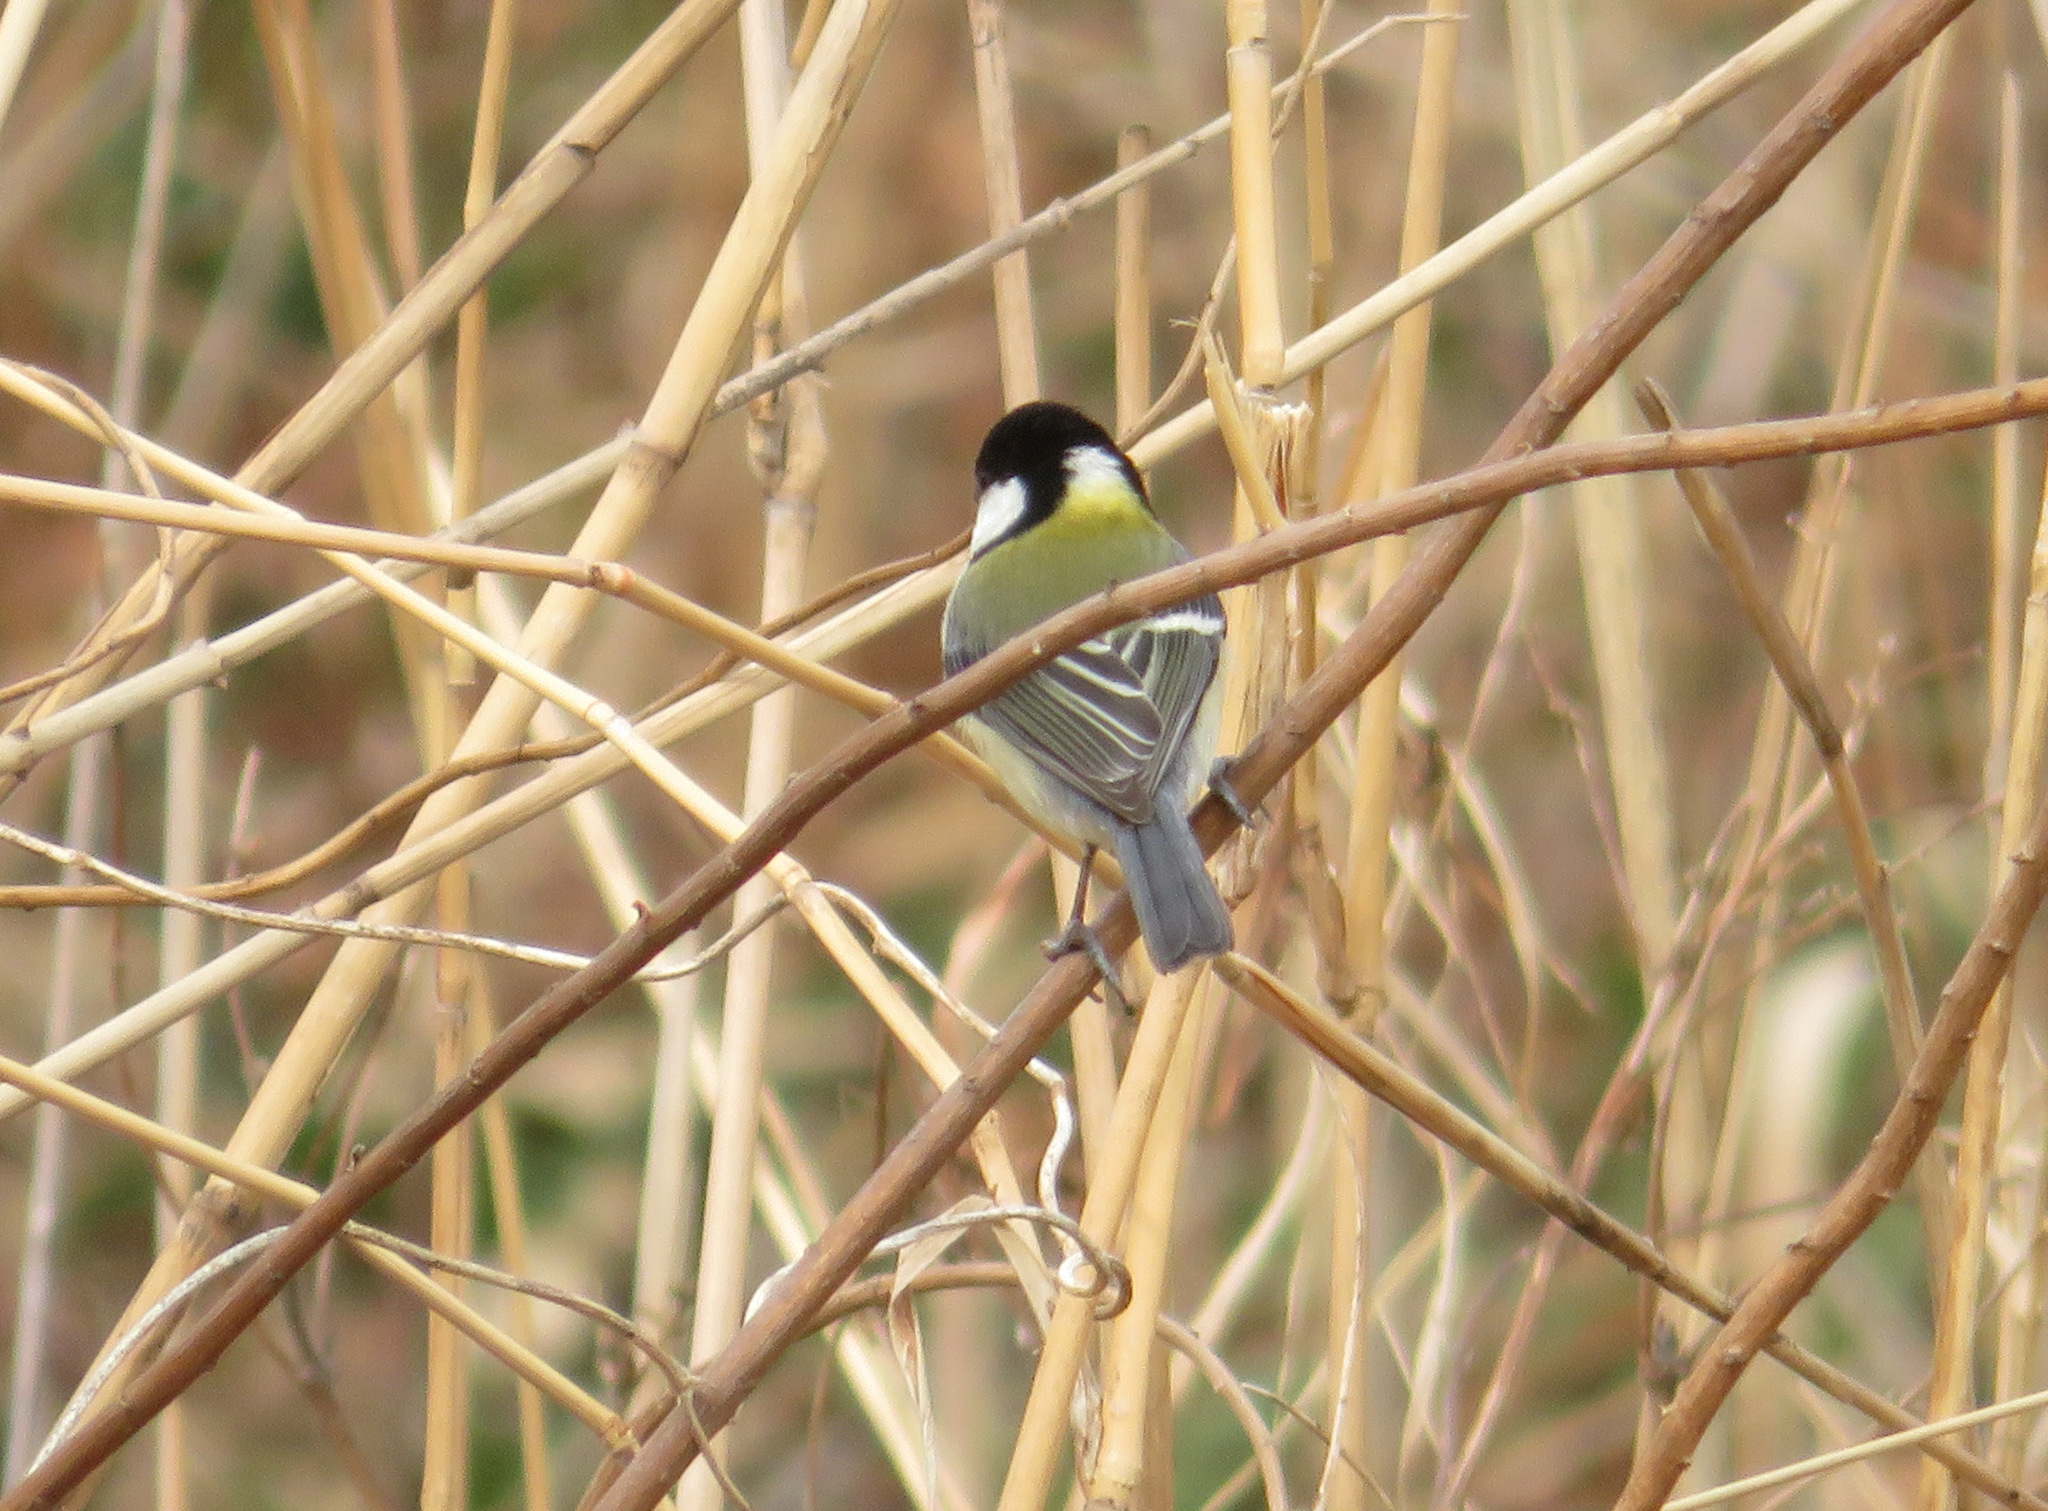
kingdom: Animalia
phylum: Chordata
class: Aves
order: Passeriformes
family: Paridae
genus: Parus
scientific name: Parus minor
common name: Japanese tit
